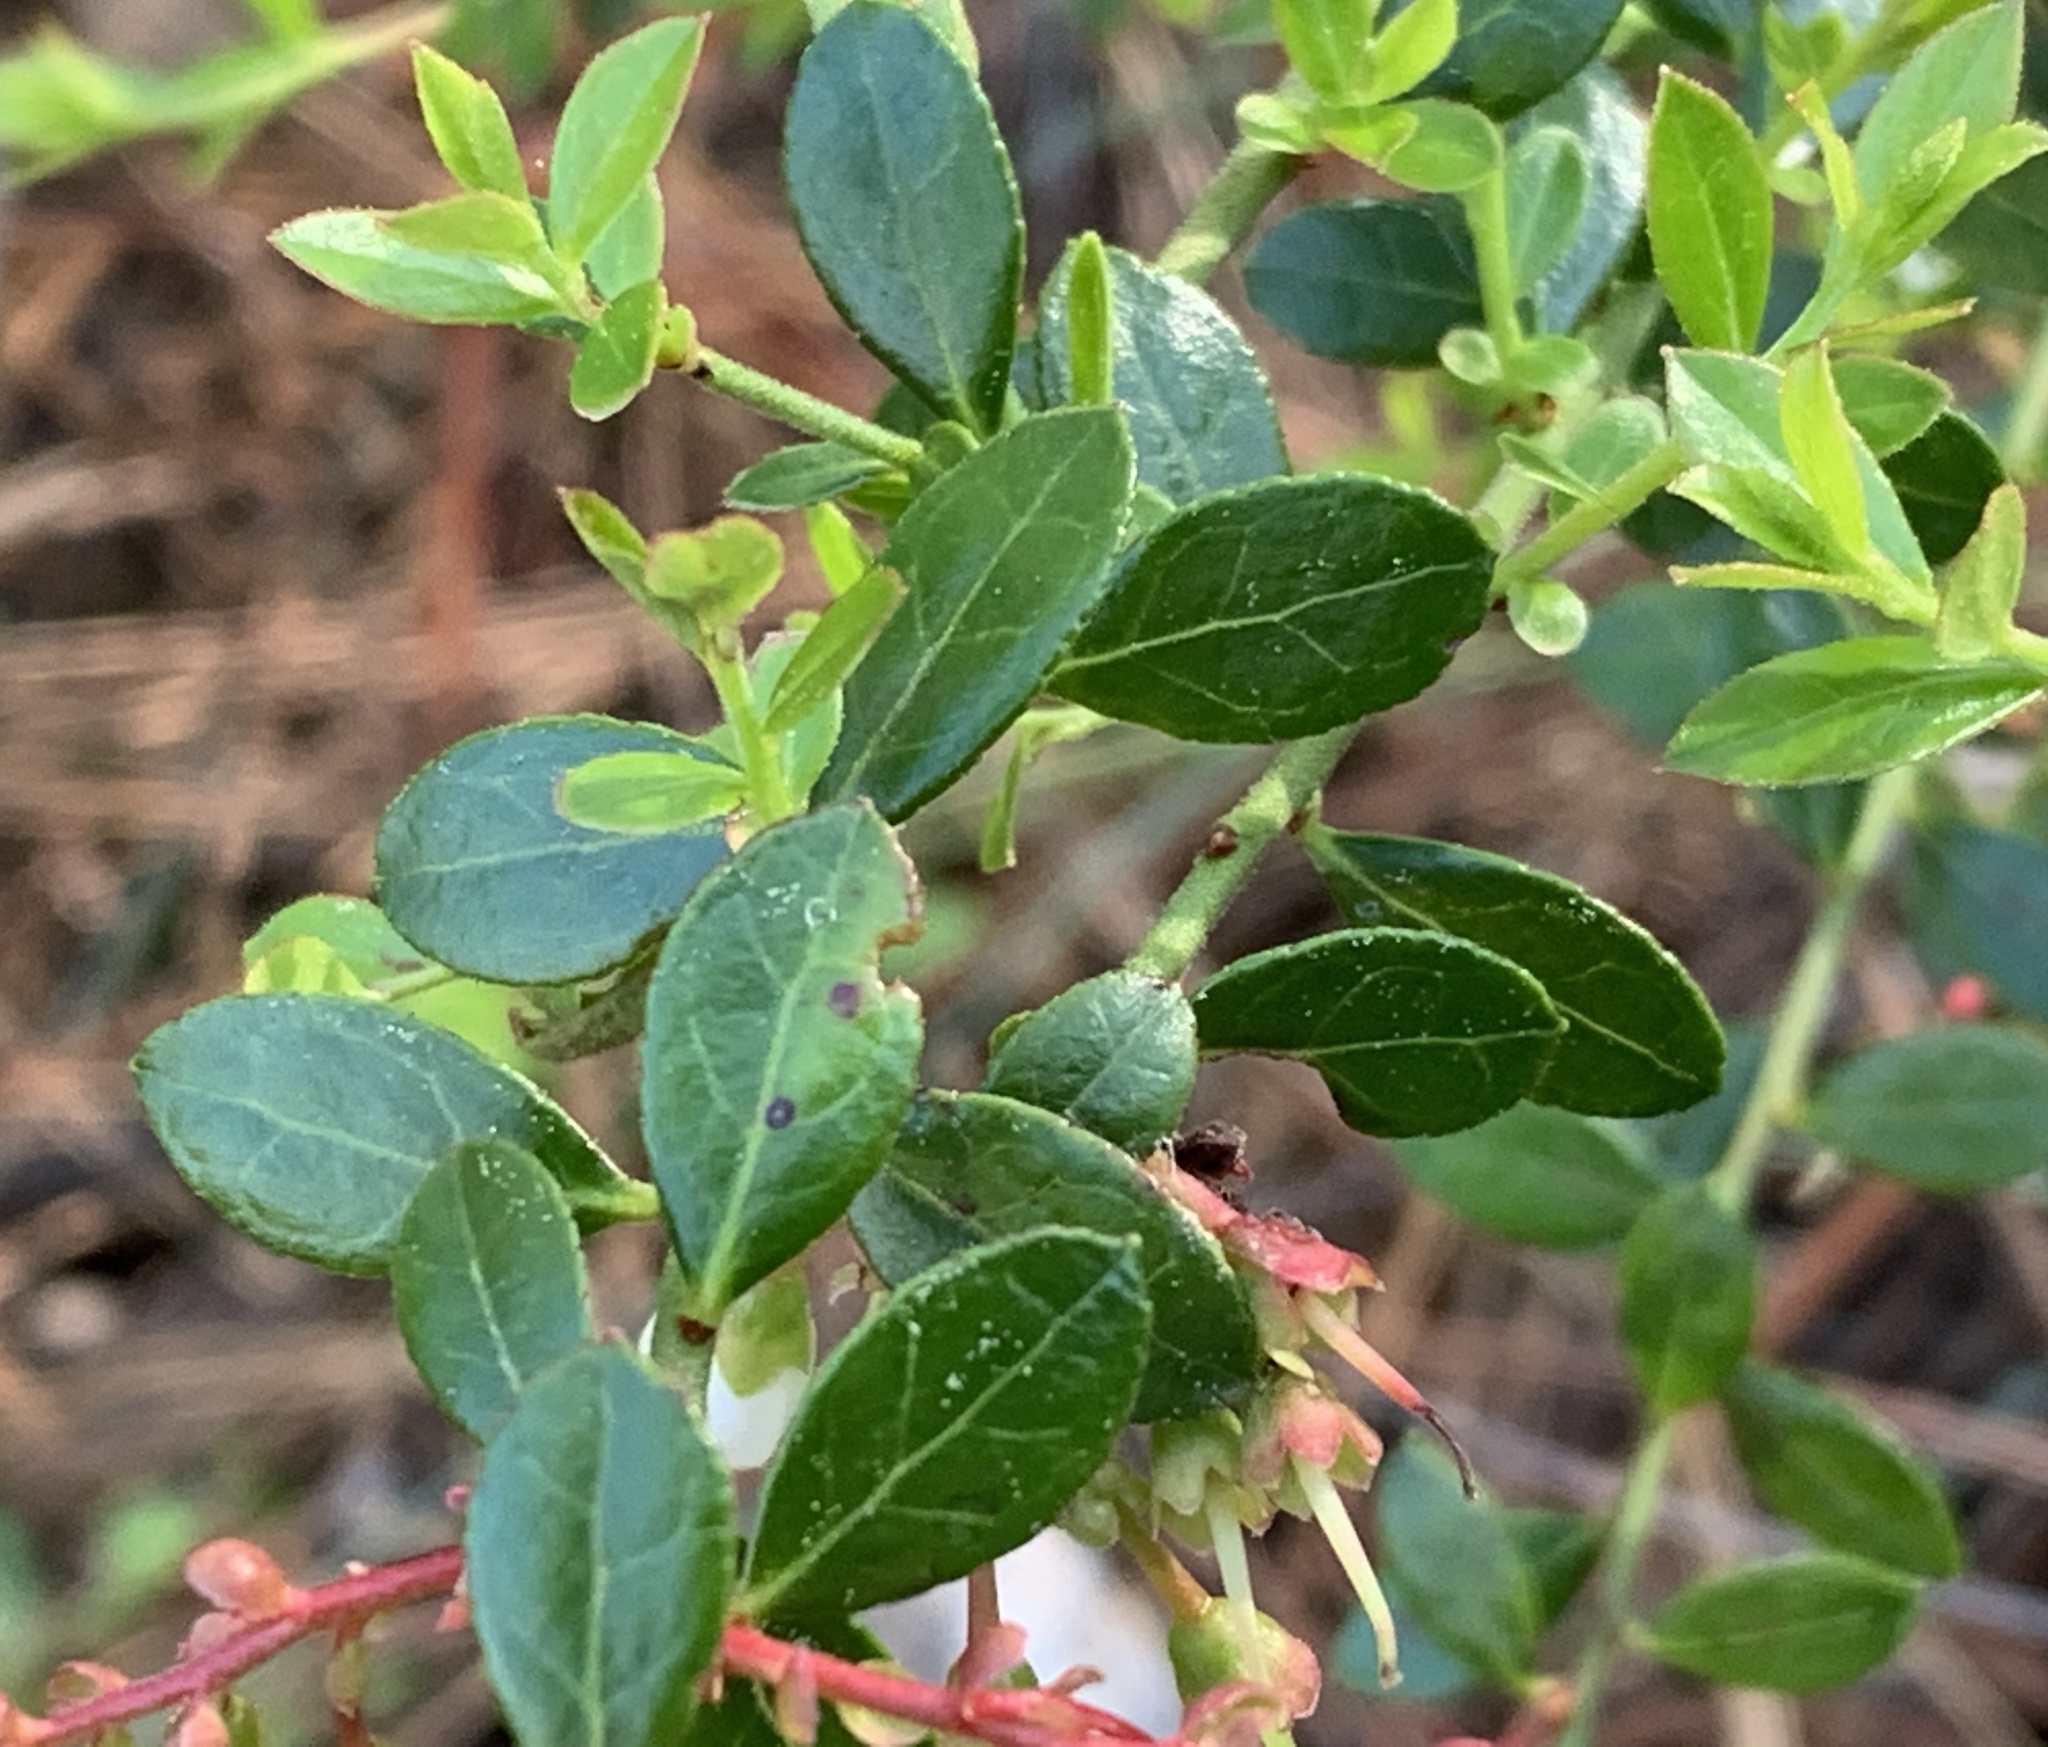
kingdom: Plantae
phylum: Tracheophyta
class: Magnoliopsida
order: Ericales
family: Ericaceae
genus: Vaccinium
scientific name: Vaccinium myrsinites
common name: Evergreen blueberry
